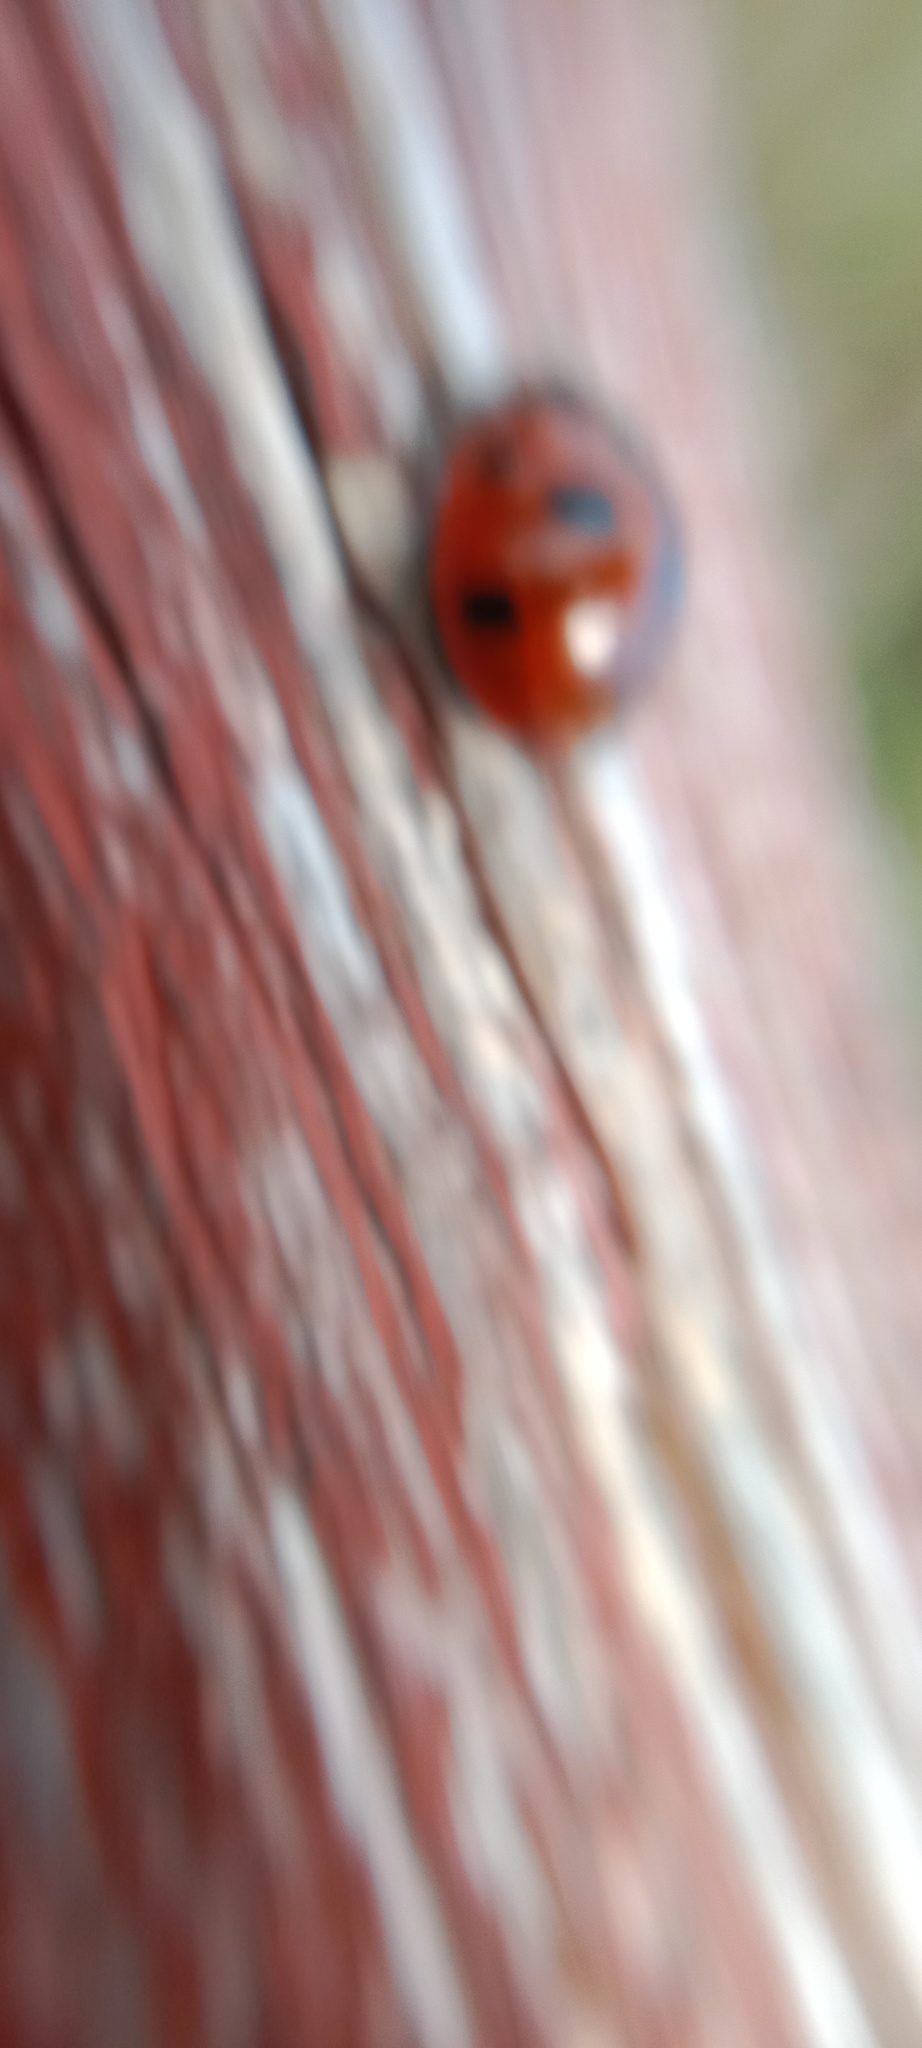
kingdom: Animalia
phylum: Arthropoda
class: Insecta
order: Coleoptera
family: Coccinellidae
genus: Coccinella
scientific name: Coccinella magnifica
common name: Scarce 7-spot ladybird
